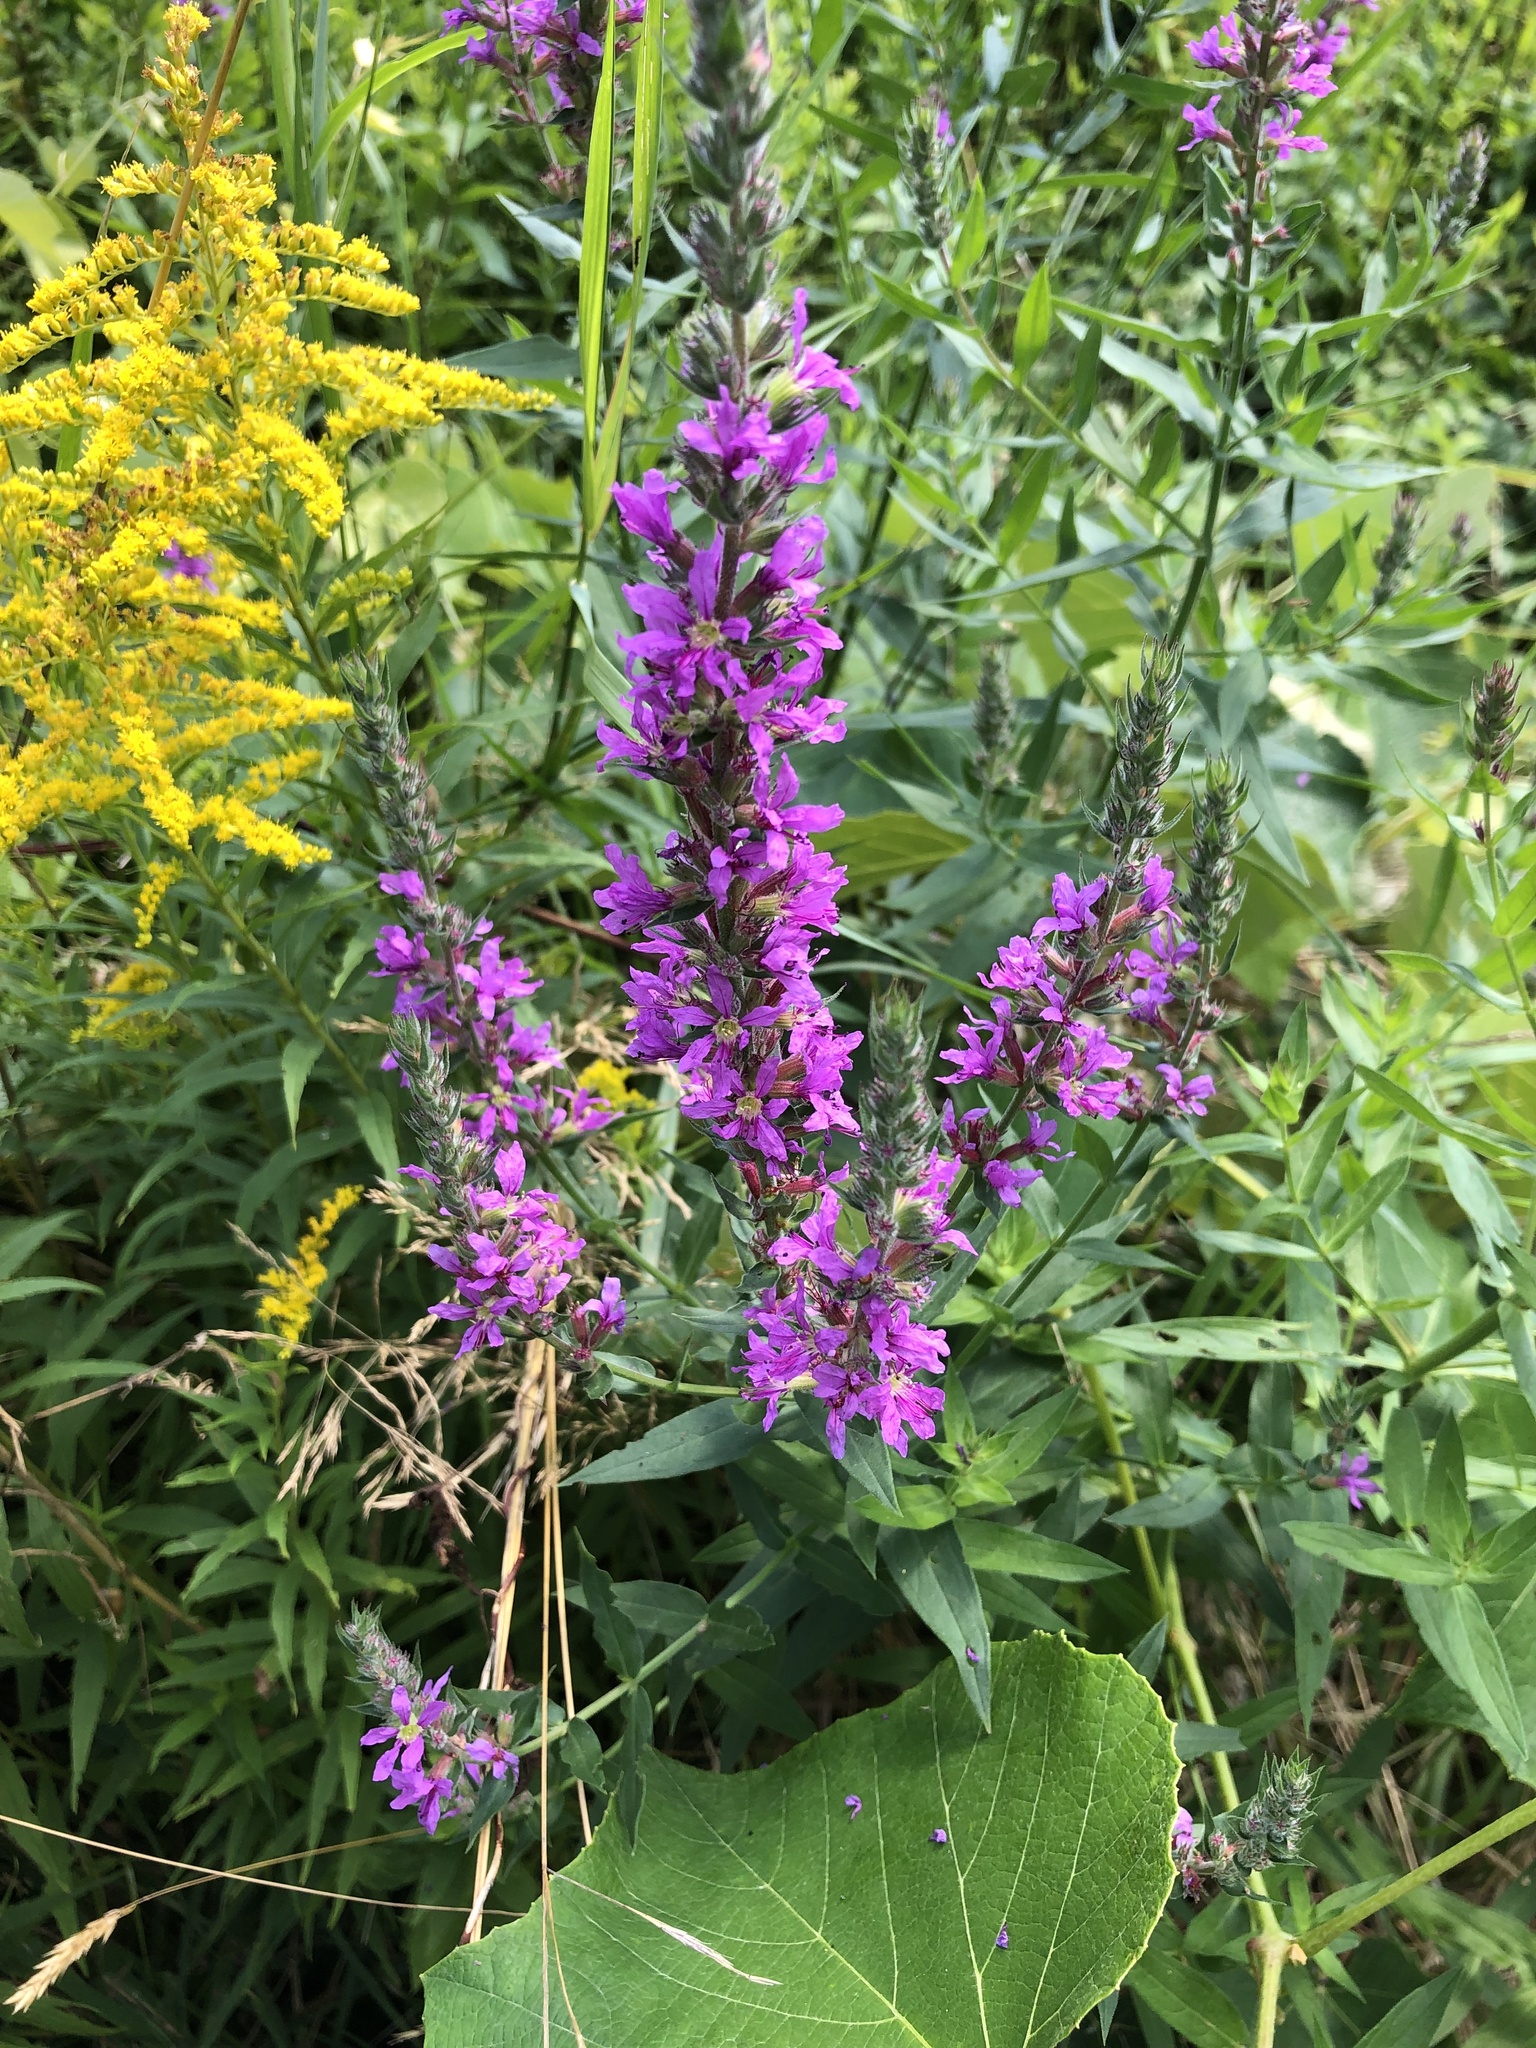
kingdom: Plantae
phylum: Tracheophyta
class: Magnoliopsida
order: Myrtales
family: Lythraceae
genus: Lythrum
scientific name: Lythrum salicaria
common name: Purple loosestrife
